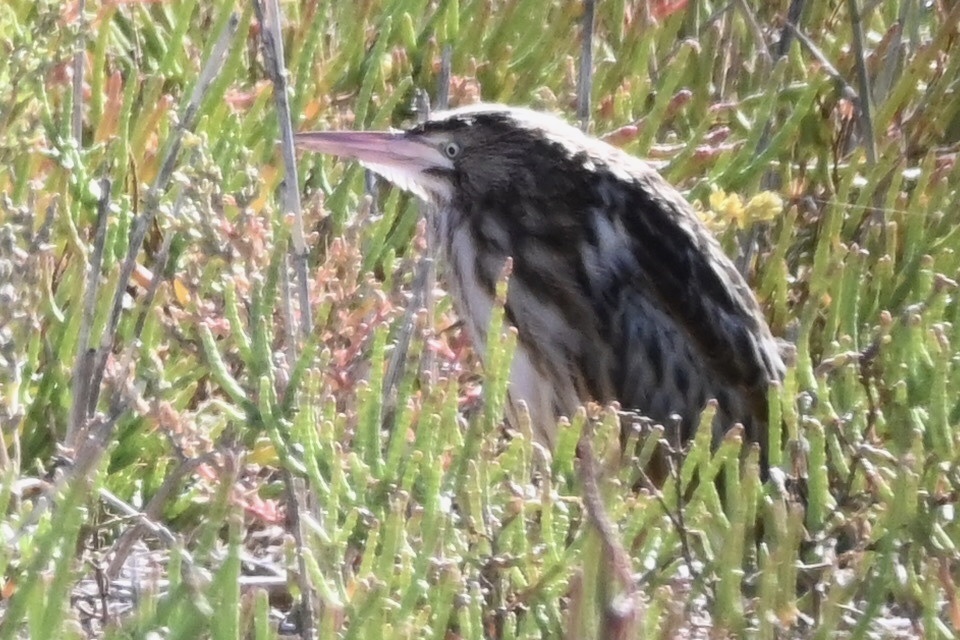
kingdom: Animalia
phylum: Chordata
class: Aves
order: Pelecaniformes
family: Ardeidae
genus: Ixobrychus
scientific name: Ixobrychus minutus
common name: Little bittern
